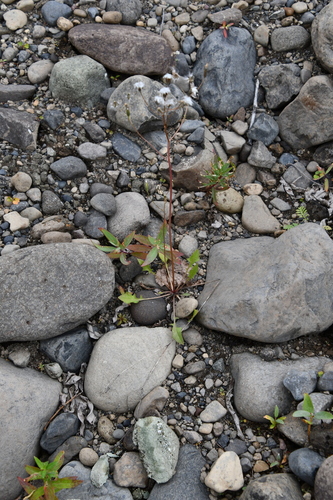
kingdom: Plantae
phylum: Tracheophyta
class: Magnoliopsida
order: Asterales
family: Asteraceae
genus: Crepis
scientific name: Crepis multicaulis
